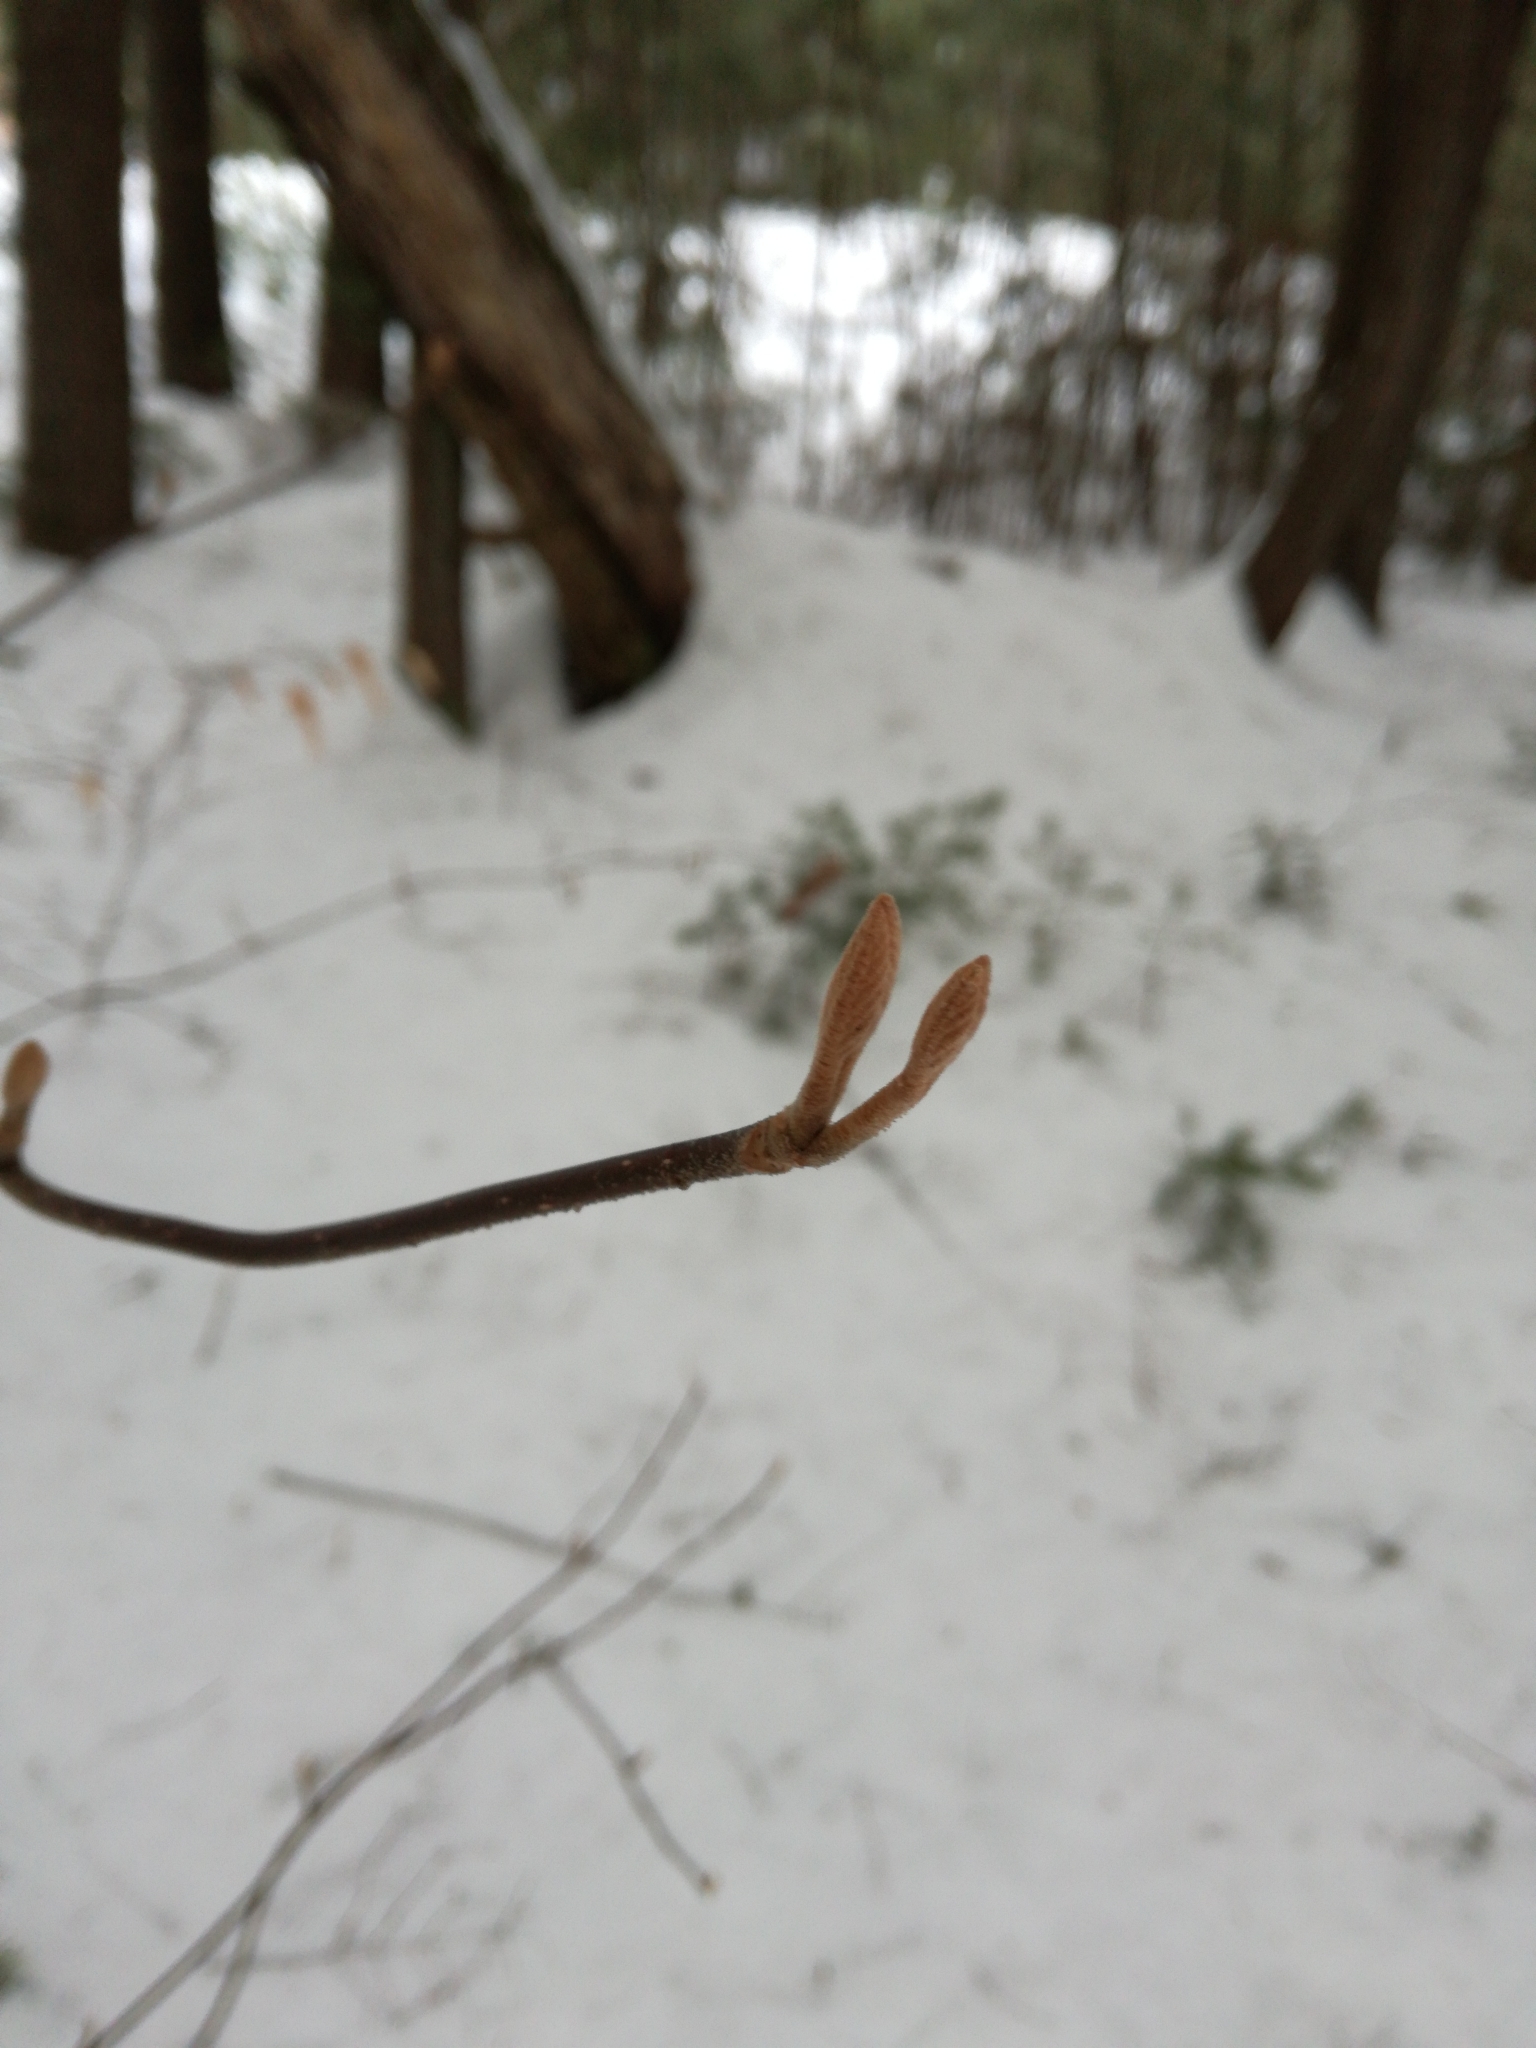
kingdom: Plantae
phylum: Tracheophyta
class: Magnoliopsida
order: Dipsacales
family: Viburnaceae
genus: Viburnum
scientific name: Viburnum lantanoides
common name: Hobblebush
